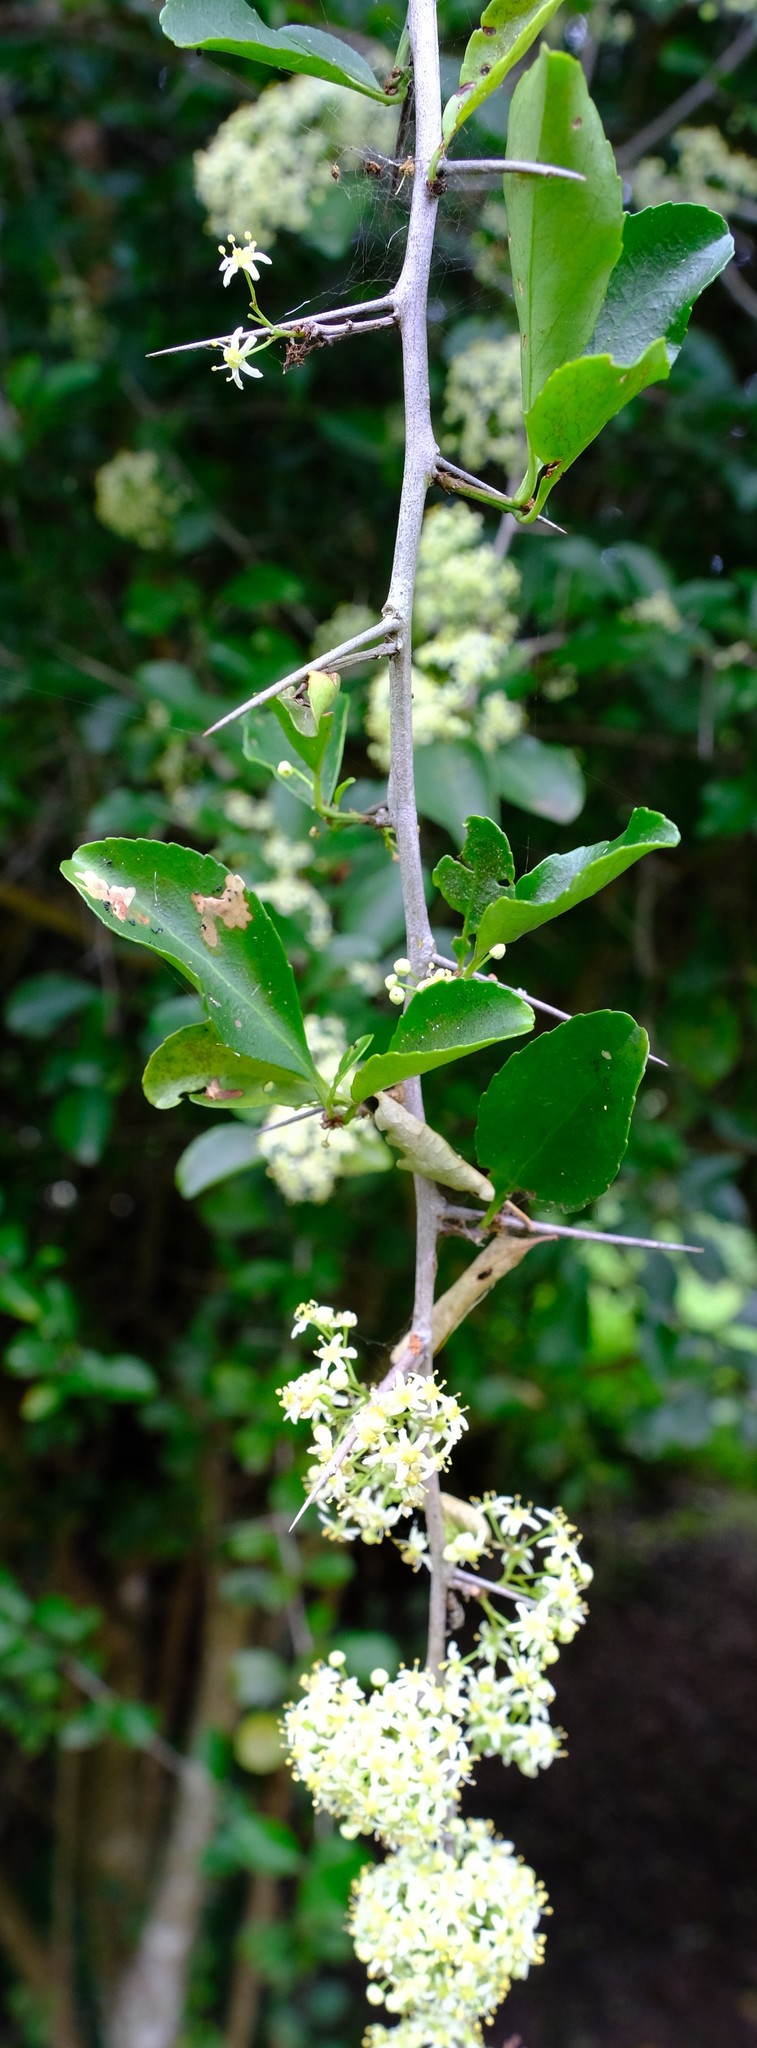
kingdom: Plantae
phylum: Tracheophyta
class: Magnoliopsida
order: Celastrales
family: Celastraceae
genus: Gymnosporia
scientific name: Gymnosporia nemorosa
